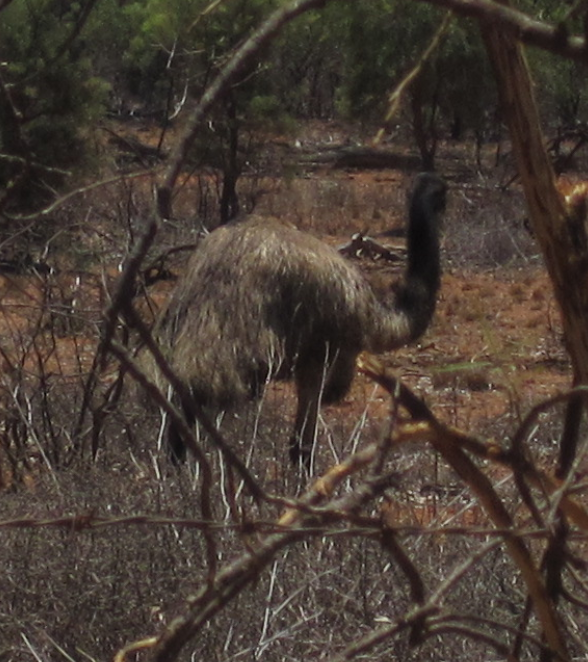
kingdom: Animalia
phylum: Chordata
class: Aves
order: Casuariiformes
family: Dromaiidae
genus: Dromaius
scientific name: Dromaius novaehollandiae
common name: Emu
